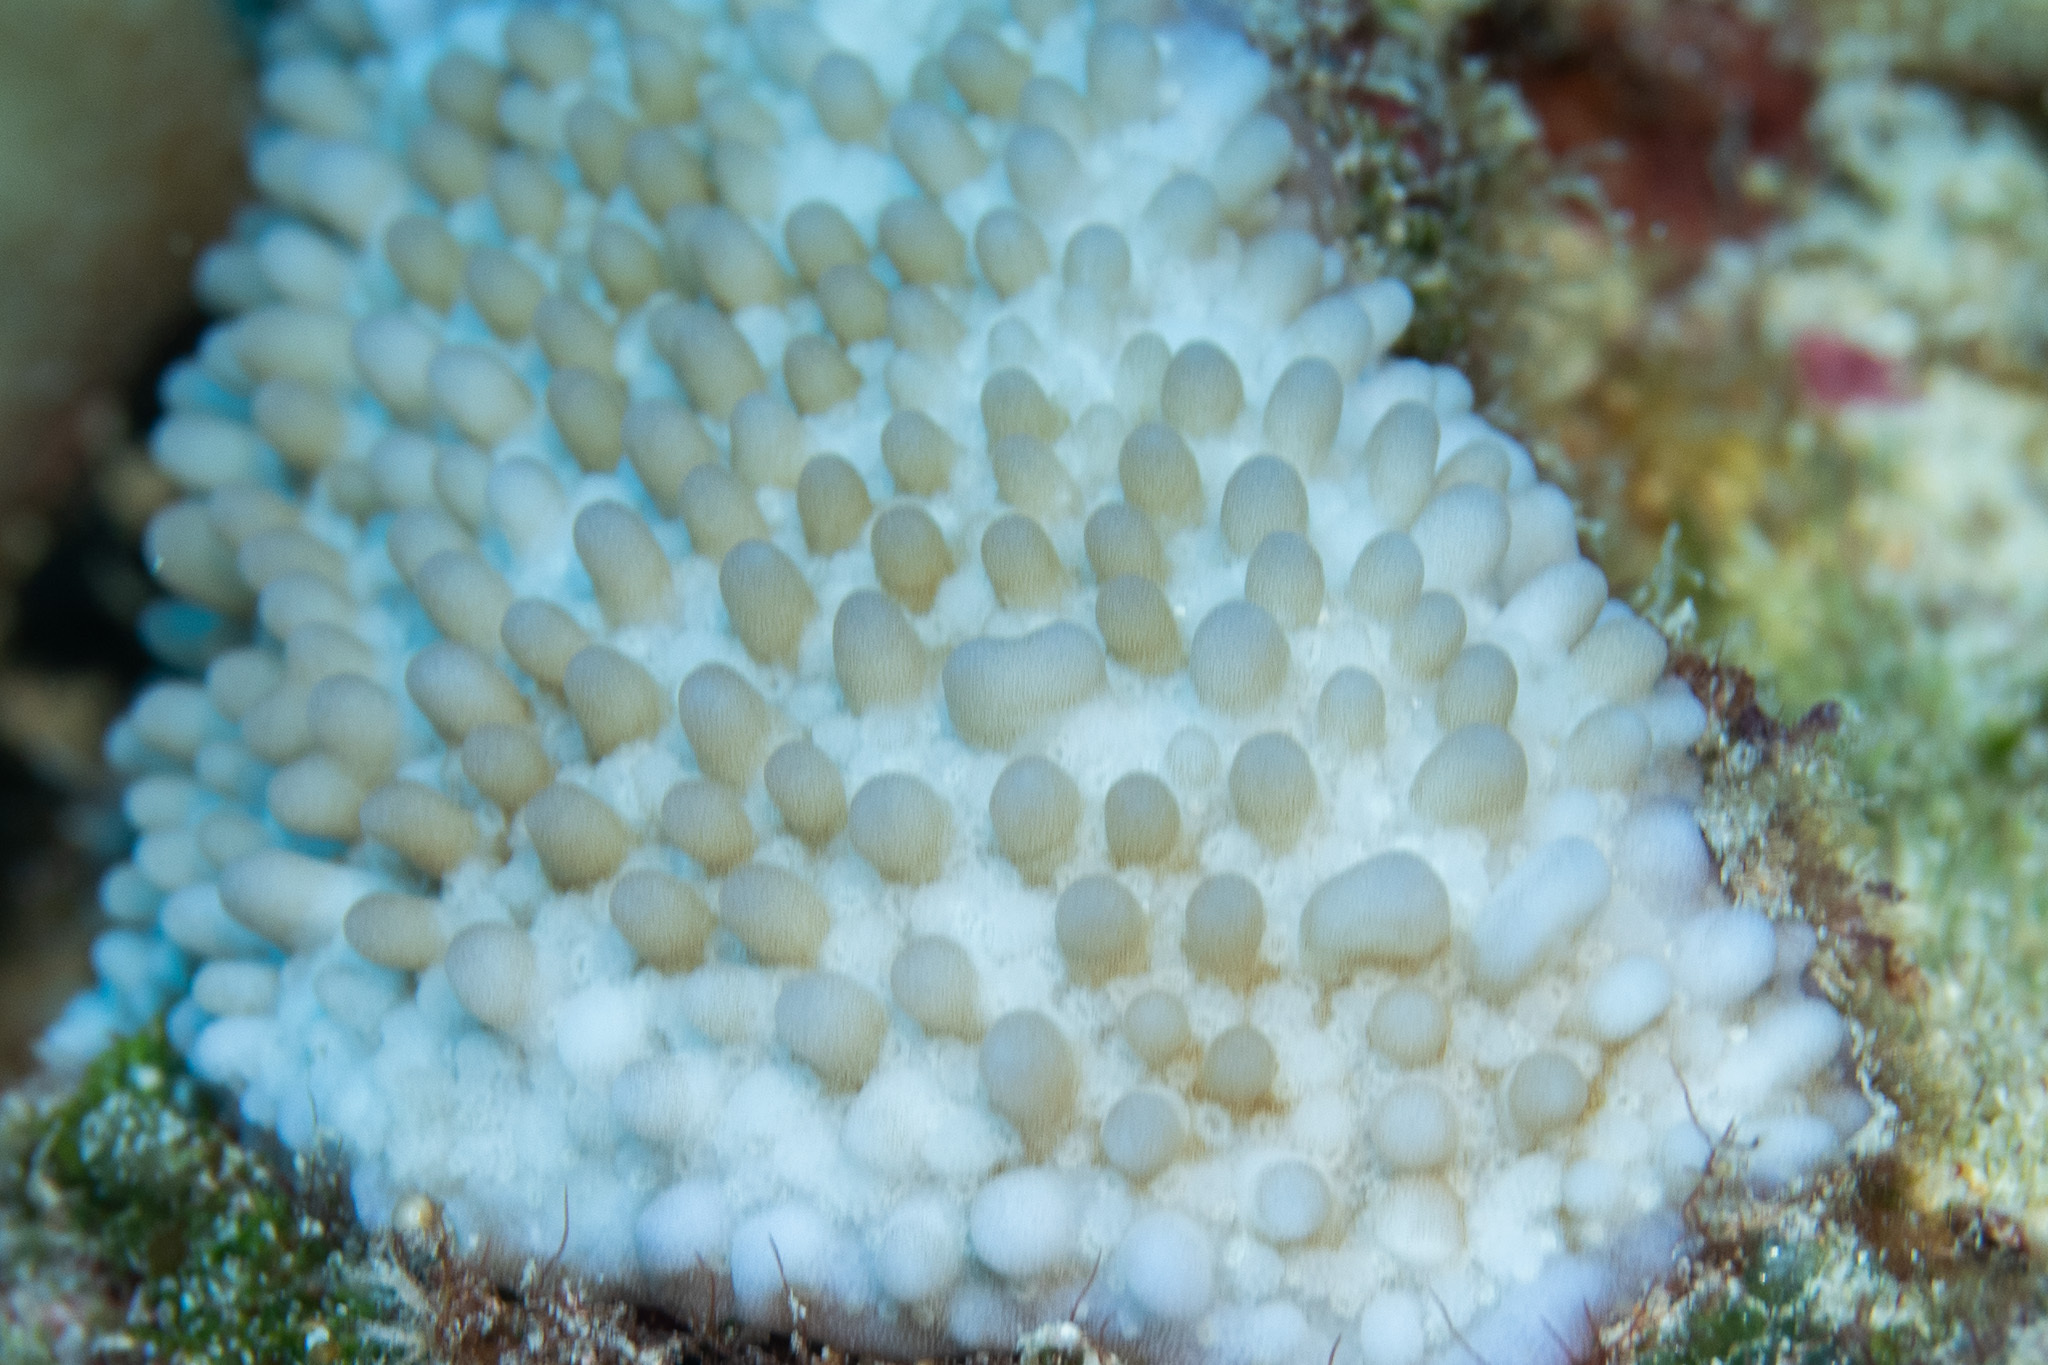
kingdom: Animalia
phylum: Cnidaria
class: Anthozoa
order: Scleractinia
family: Acroporidae
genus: Montipora
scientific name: Montipora capitata
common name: Pore coral
